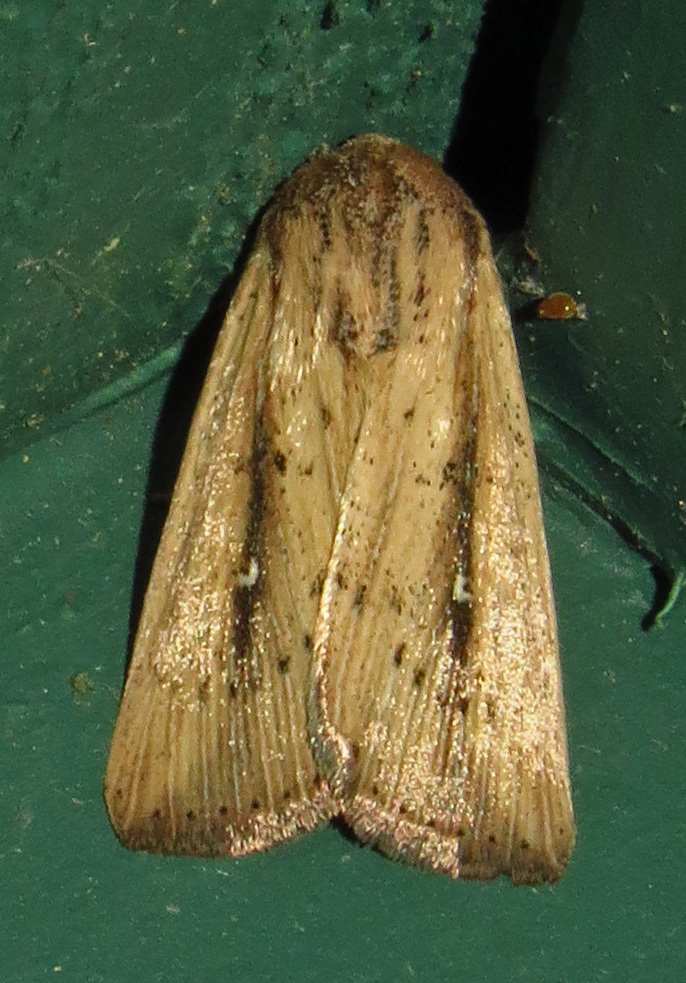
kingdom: Animalia
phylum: Arthropoda
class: Insecta
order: Lepidoptera
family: Noctuidae
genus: Leucania
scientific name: Leucania incognita
